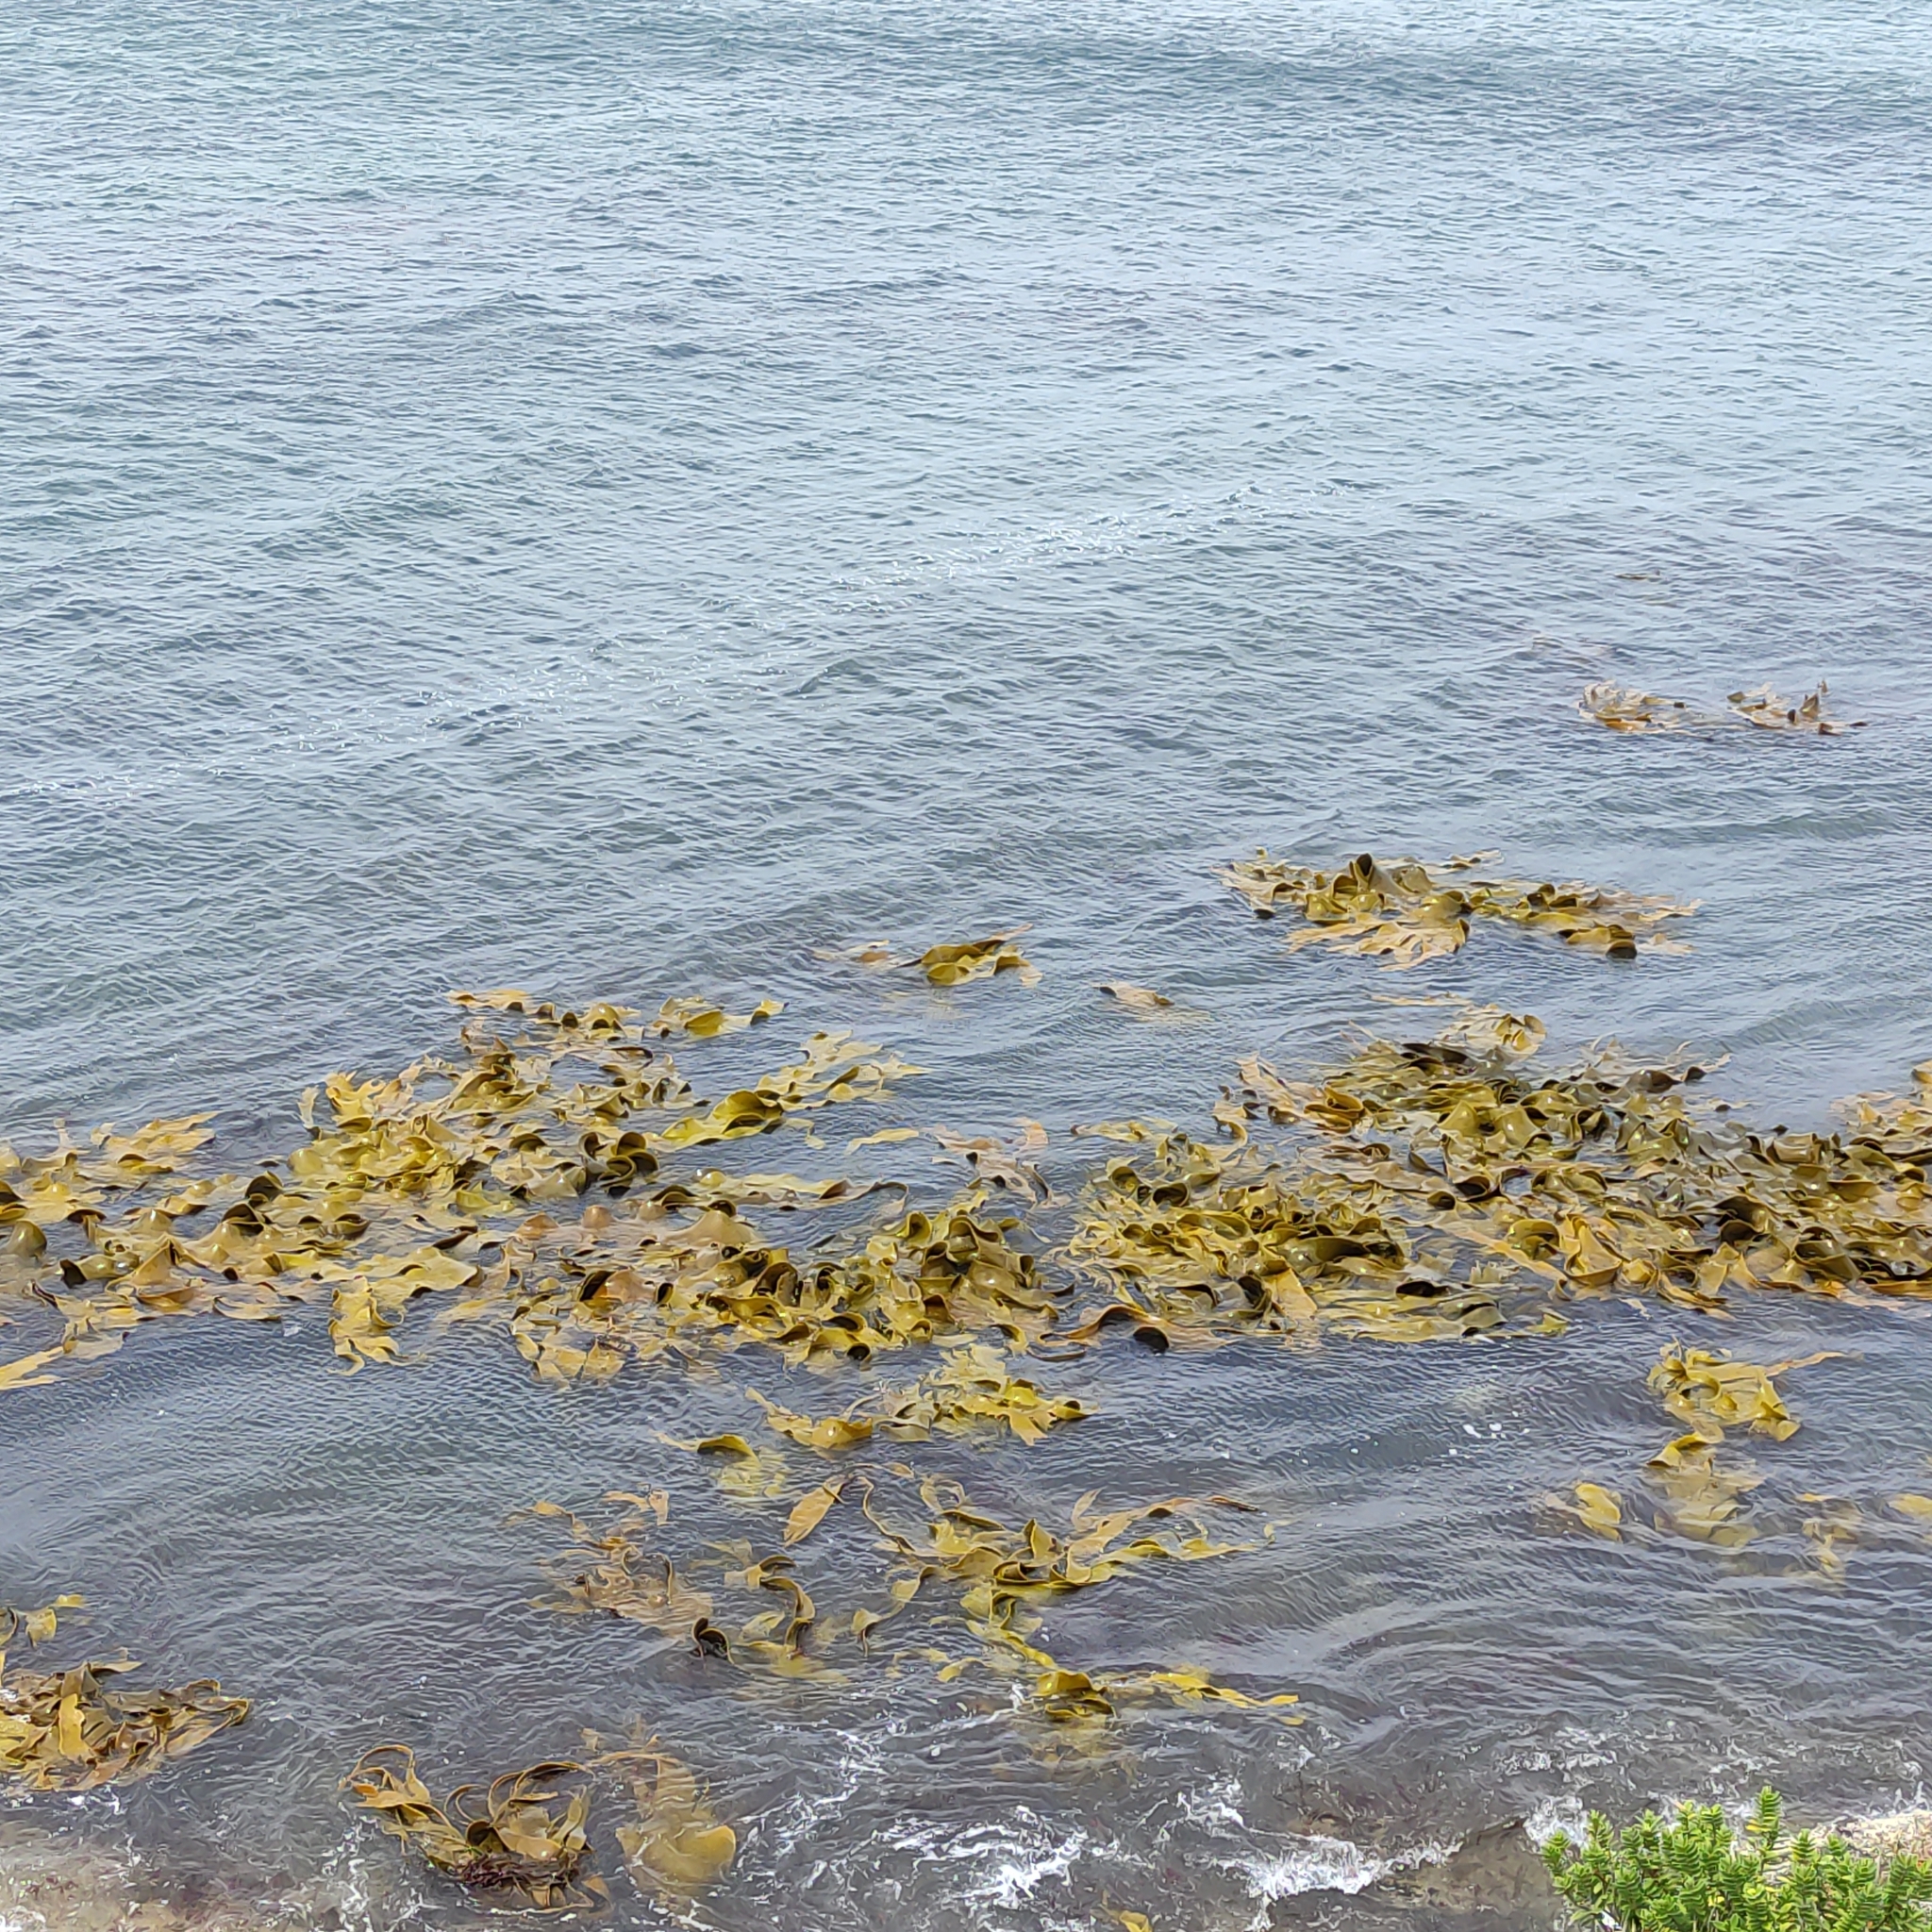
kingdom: Chromista
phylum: Ochrophyta
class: Phaeophyceae
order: Fucales
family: Durvillaeaceae
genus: Durvillaea
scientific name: Durvillaea poha
